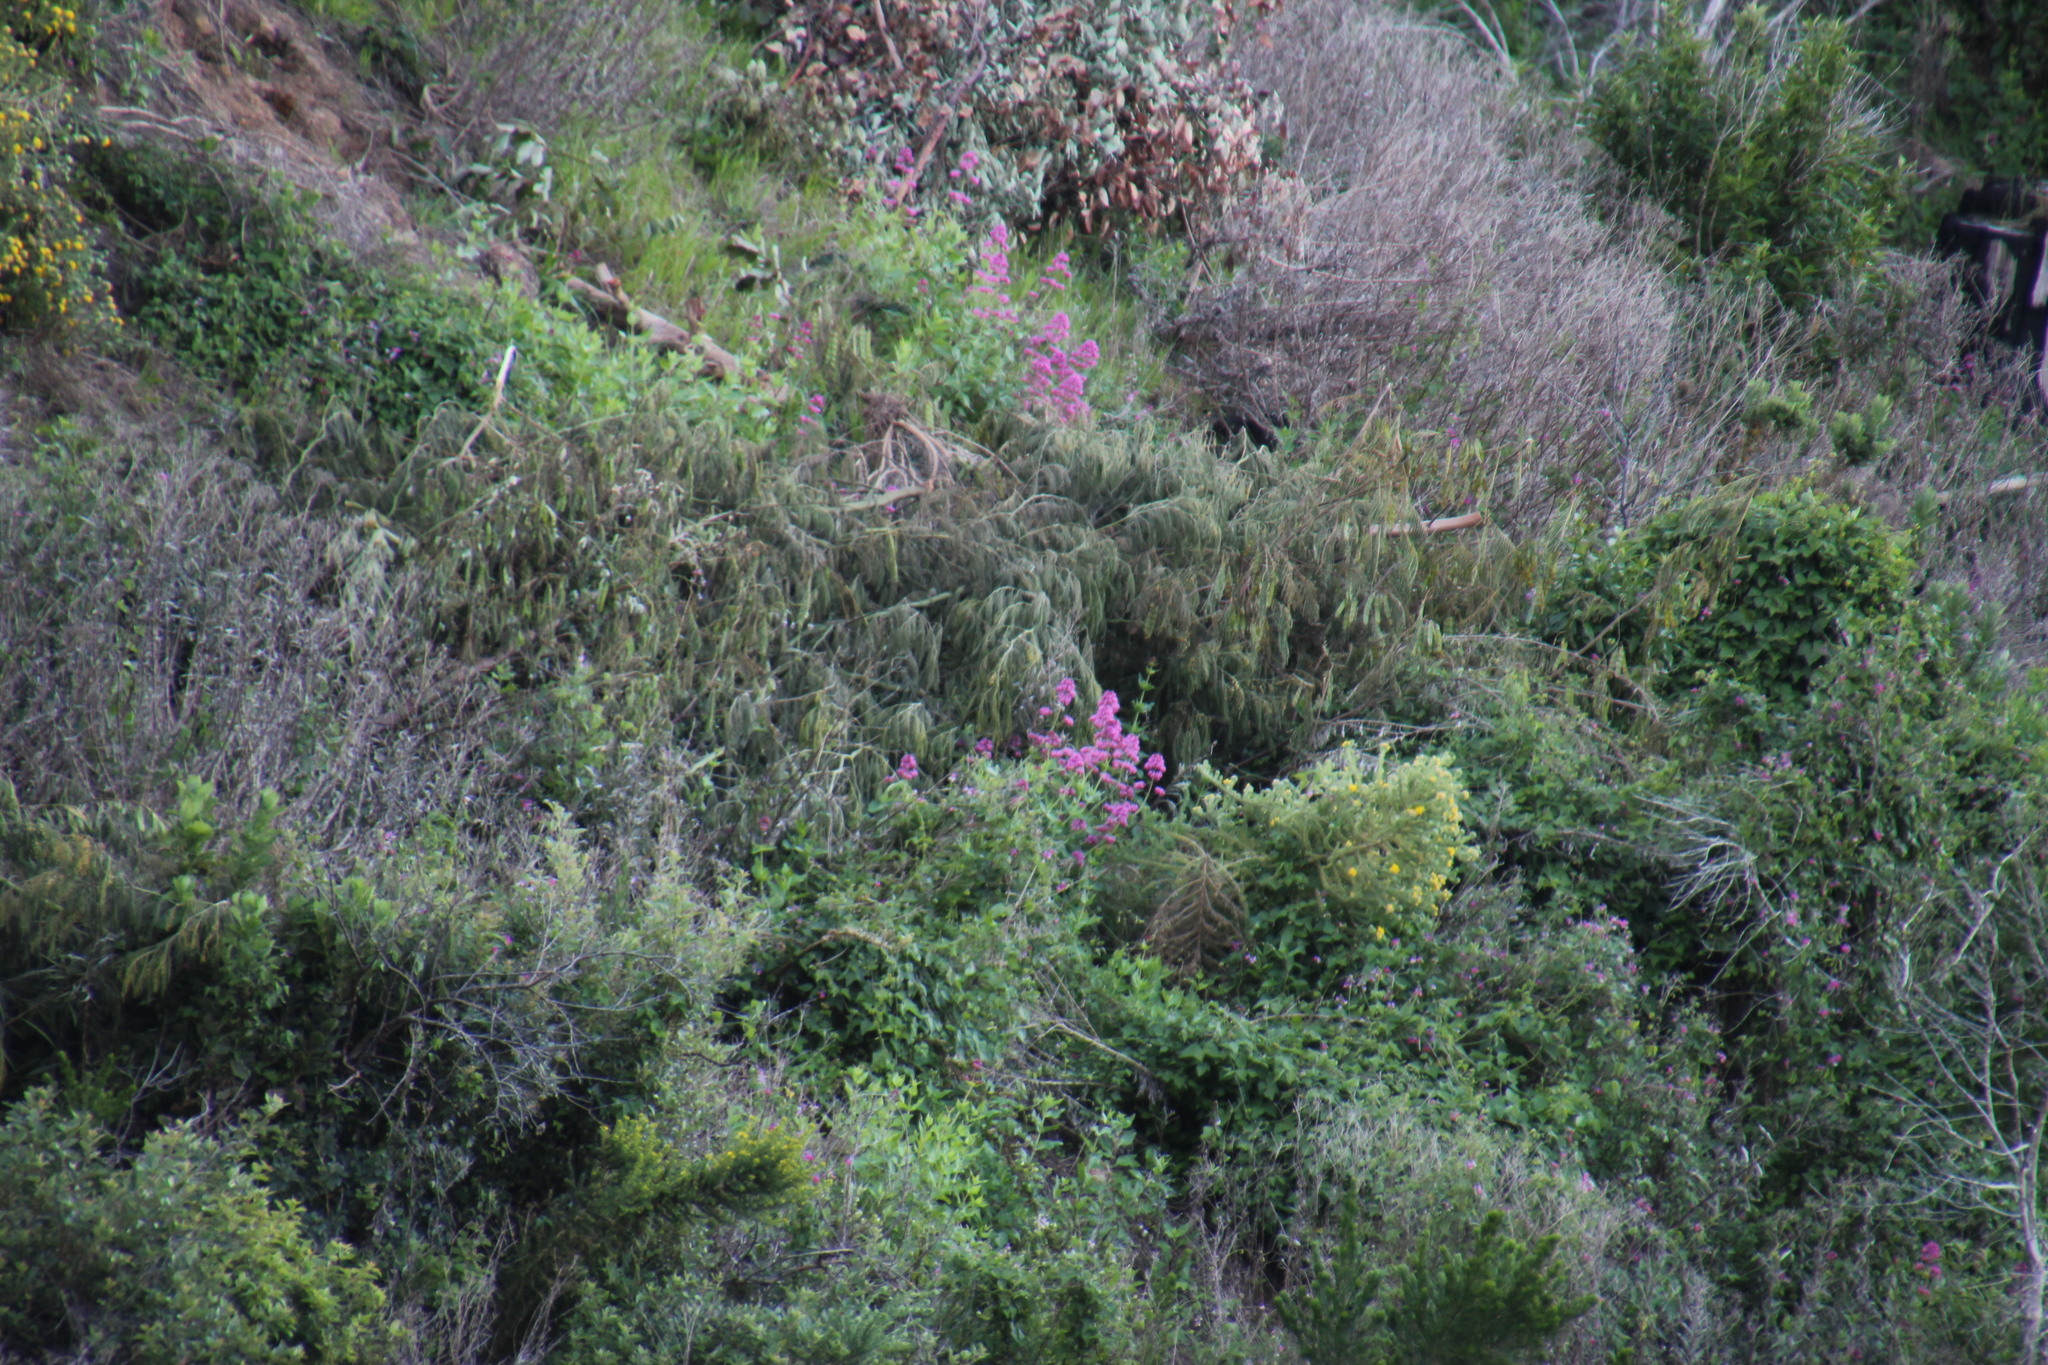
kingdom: Plantae
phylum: Tracheophyta
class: Magnoliopsida
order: Dipsacales
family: Caprifoliaceae
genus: Centranthus
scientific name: Centranthus ruber
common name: Red valerian
